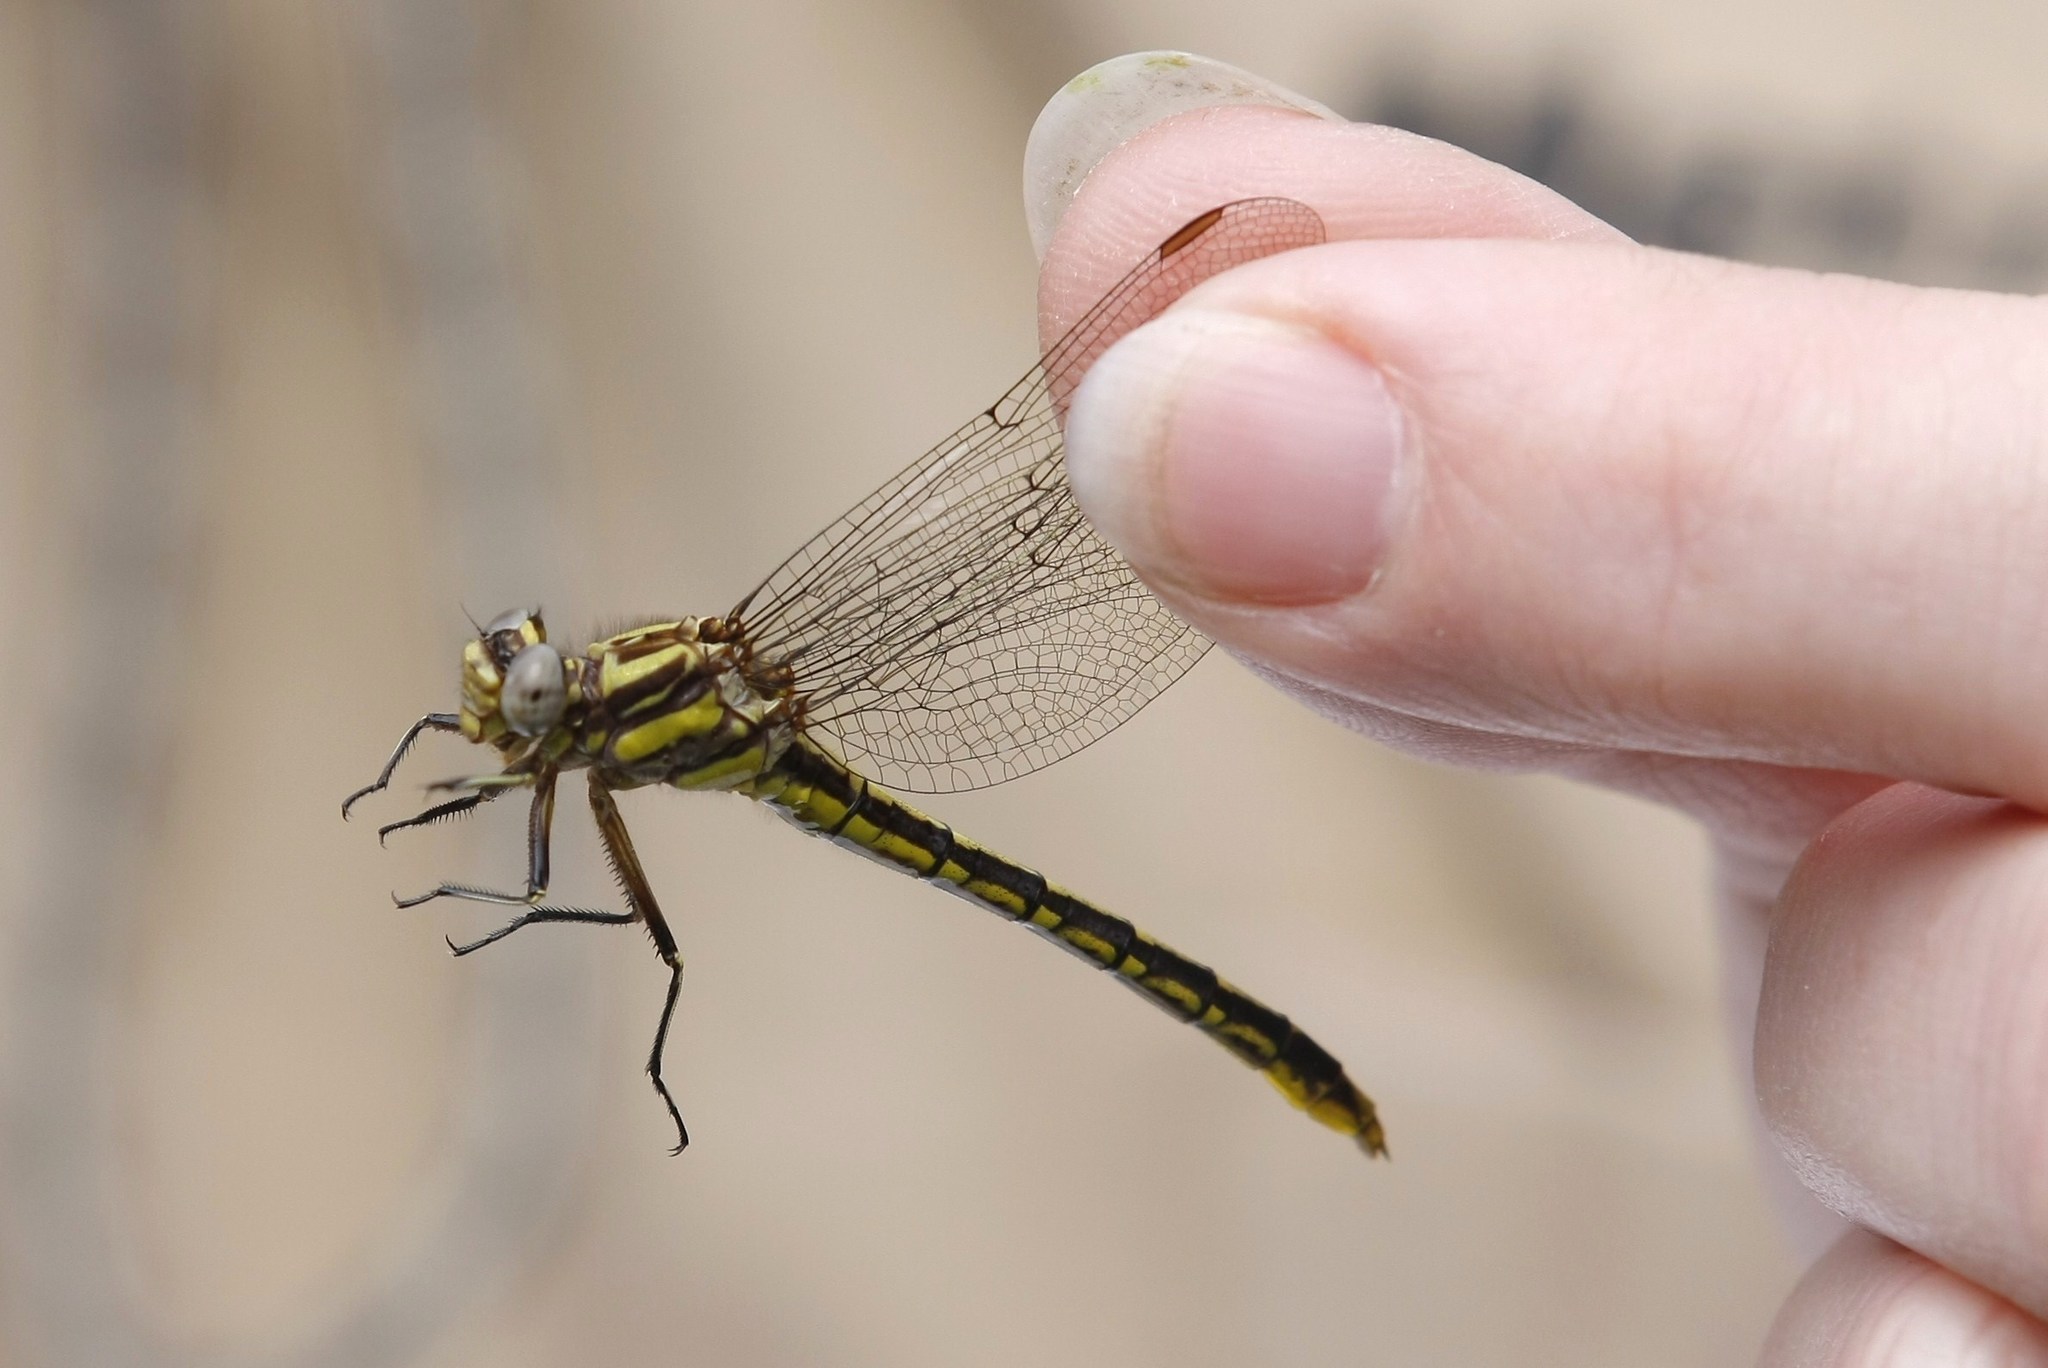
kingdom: Animalia
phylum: Arthropoda
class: Insecta
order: Odonata
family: Gomphidae
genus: Phanogomphus
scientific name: Phanogomphus exilis
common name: Lancet clubtail
